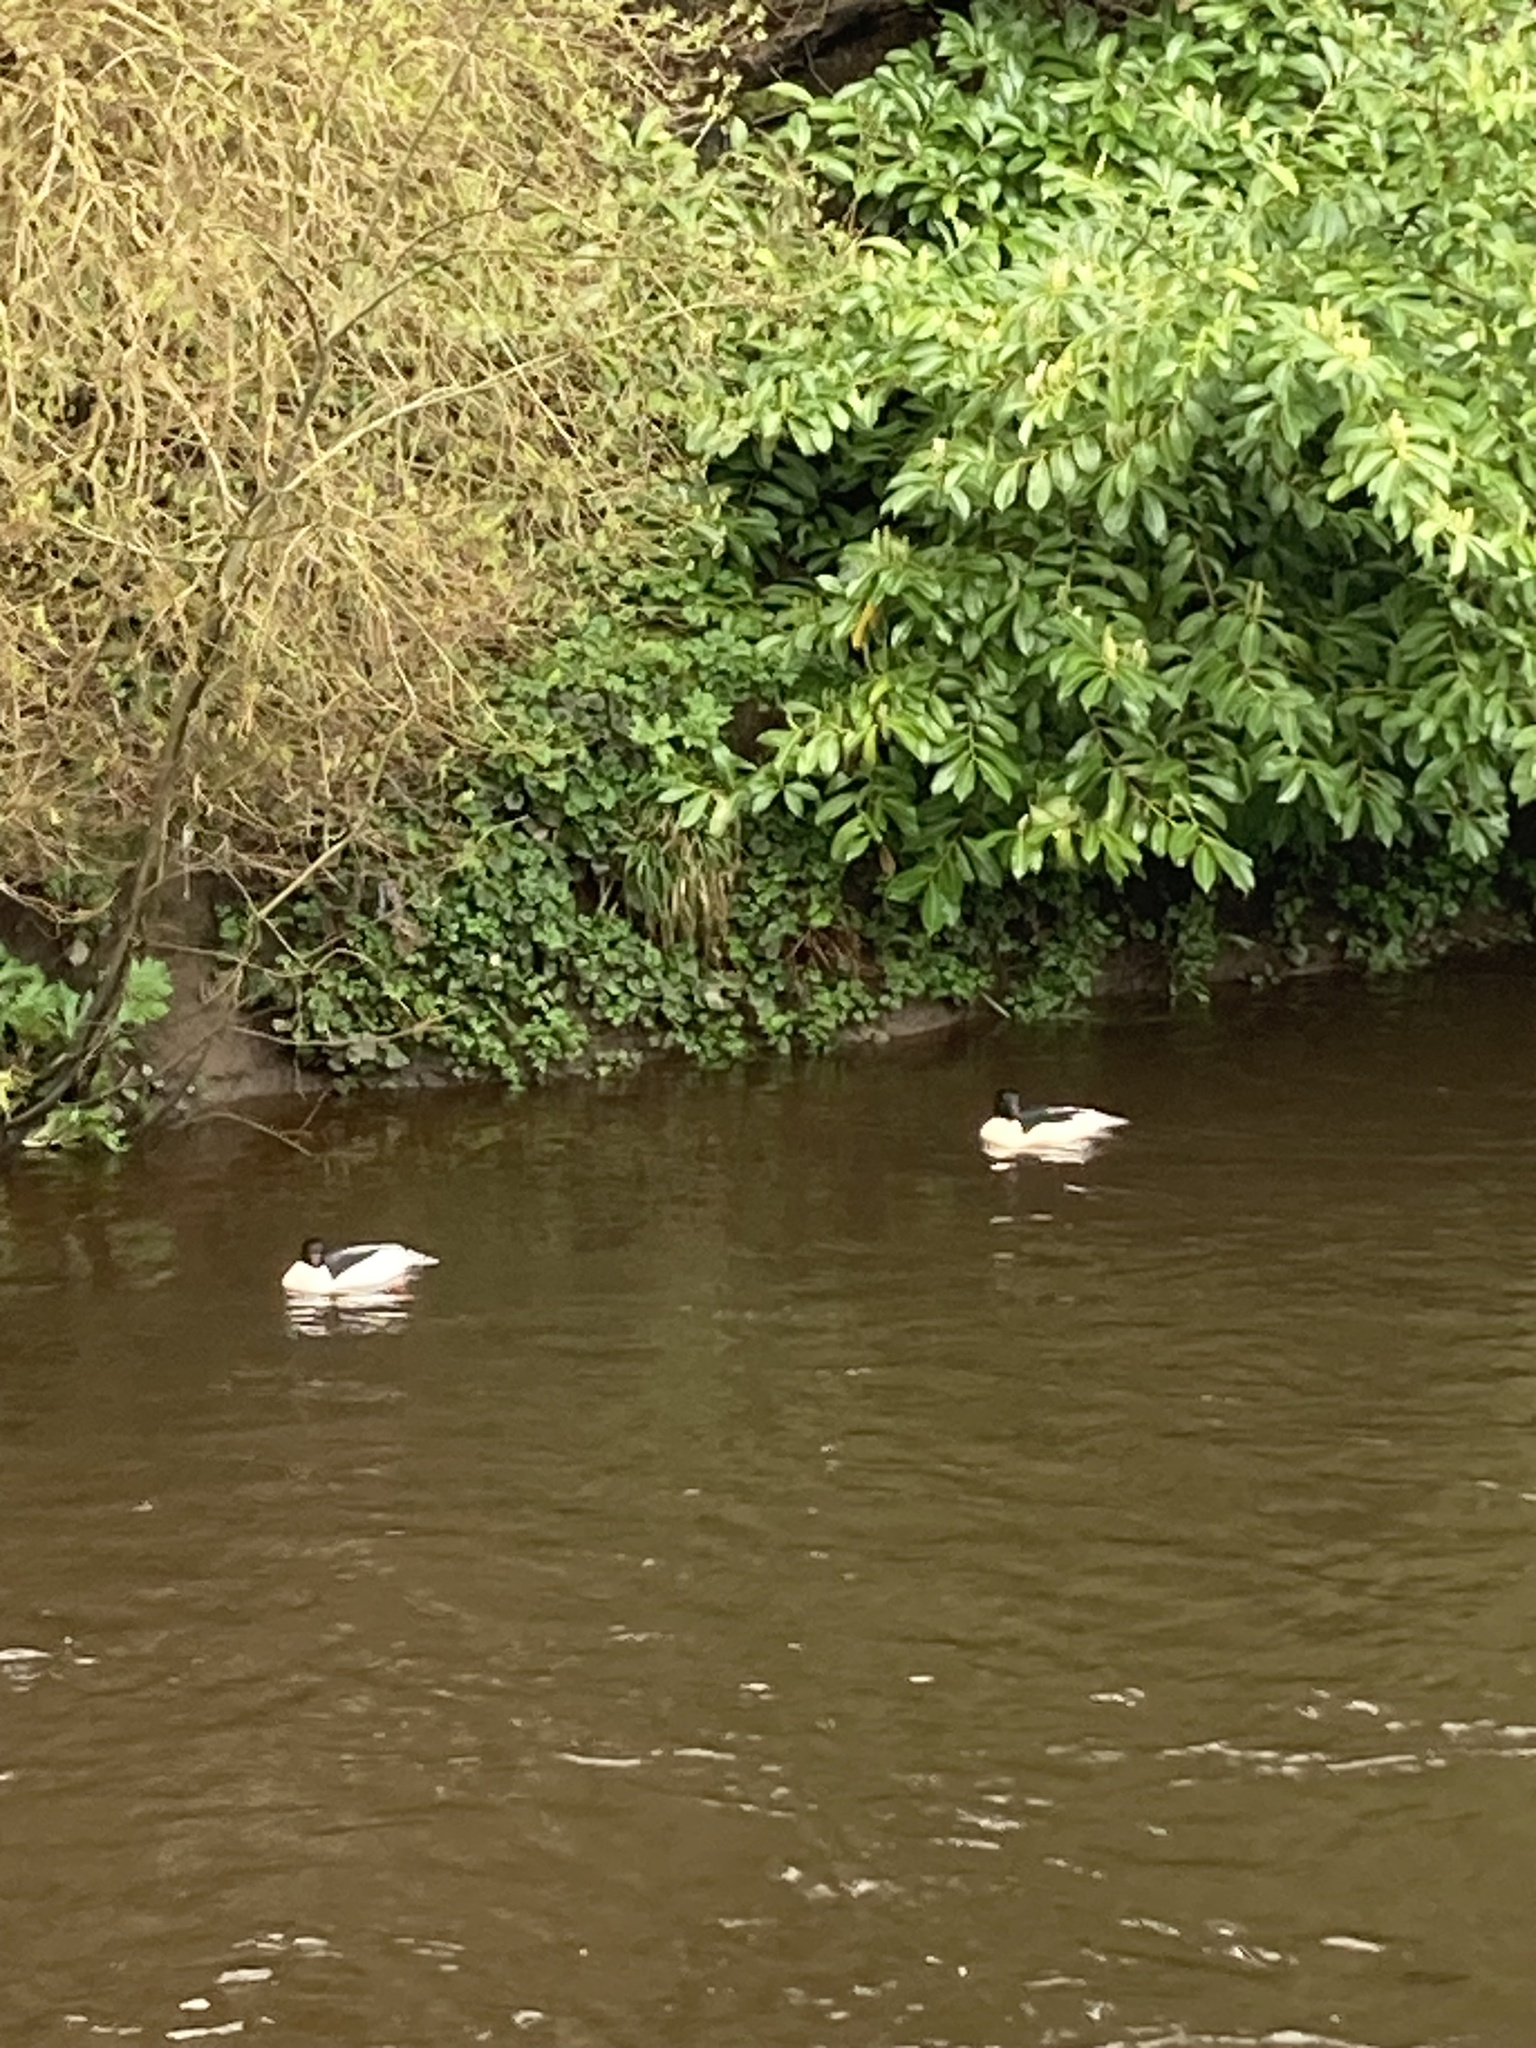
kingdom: Animalia
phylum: Chordata
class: Aves
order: Anseriformes
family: Anatidae
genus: Mergus
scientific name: Mergus merganser
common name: Common merganser
